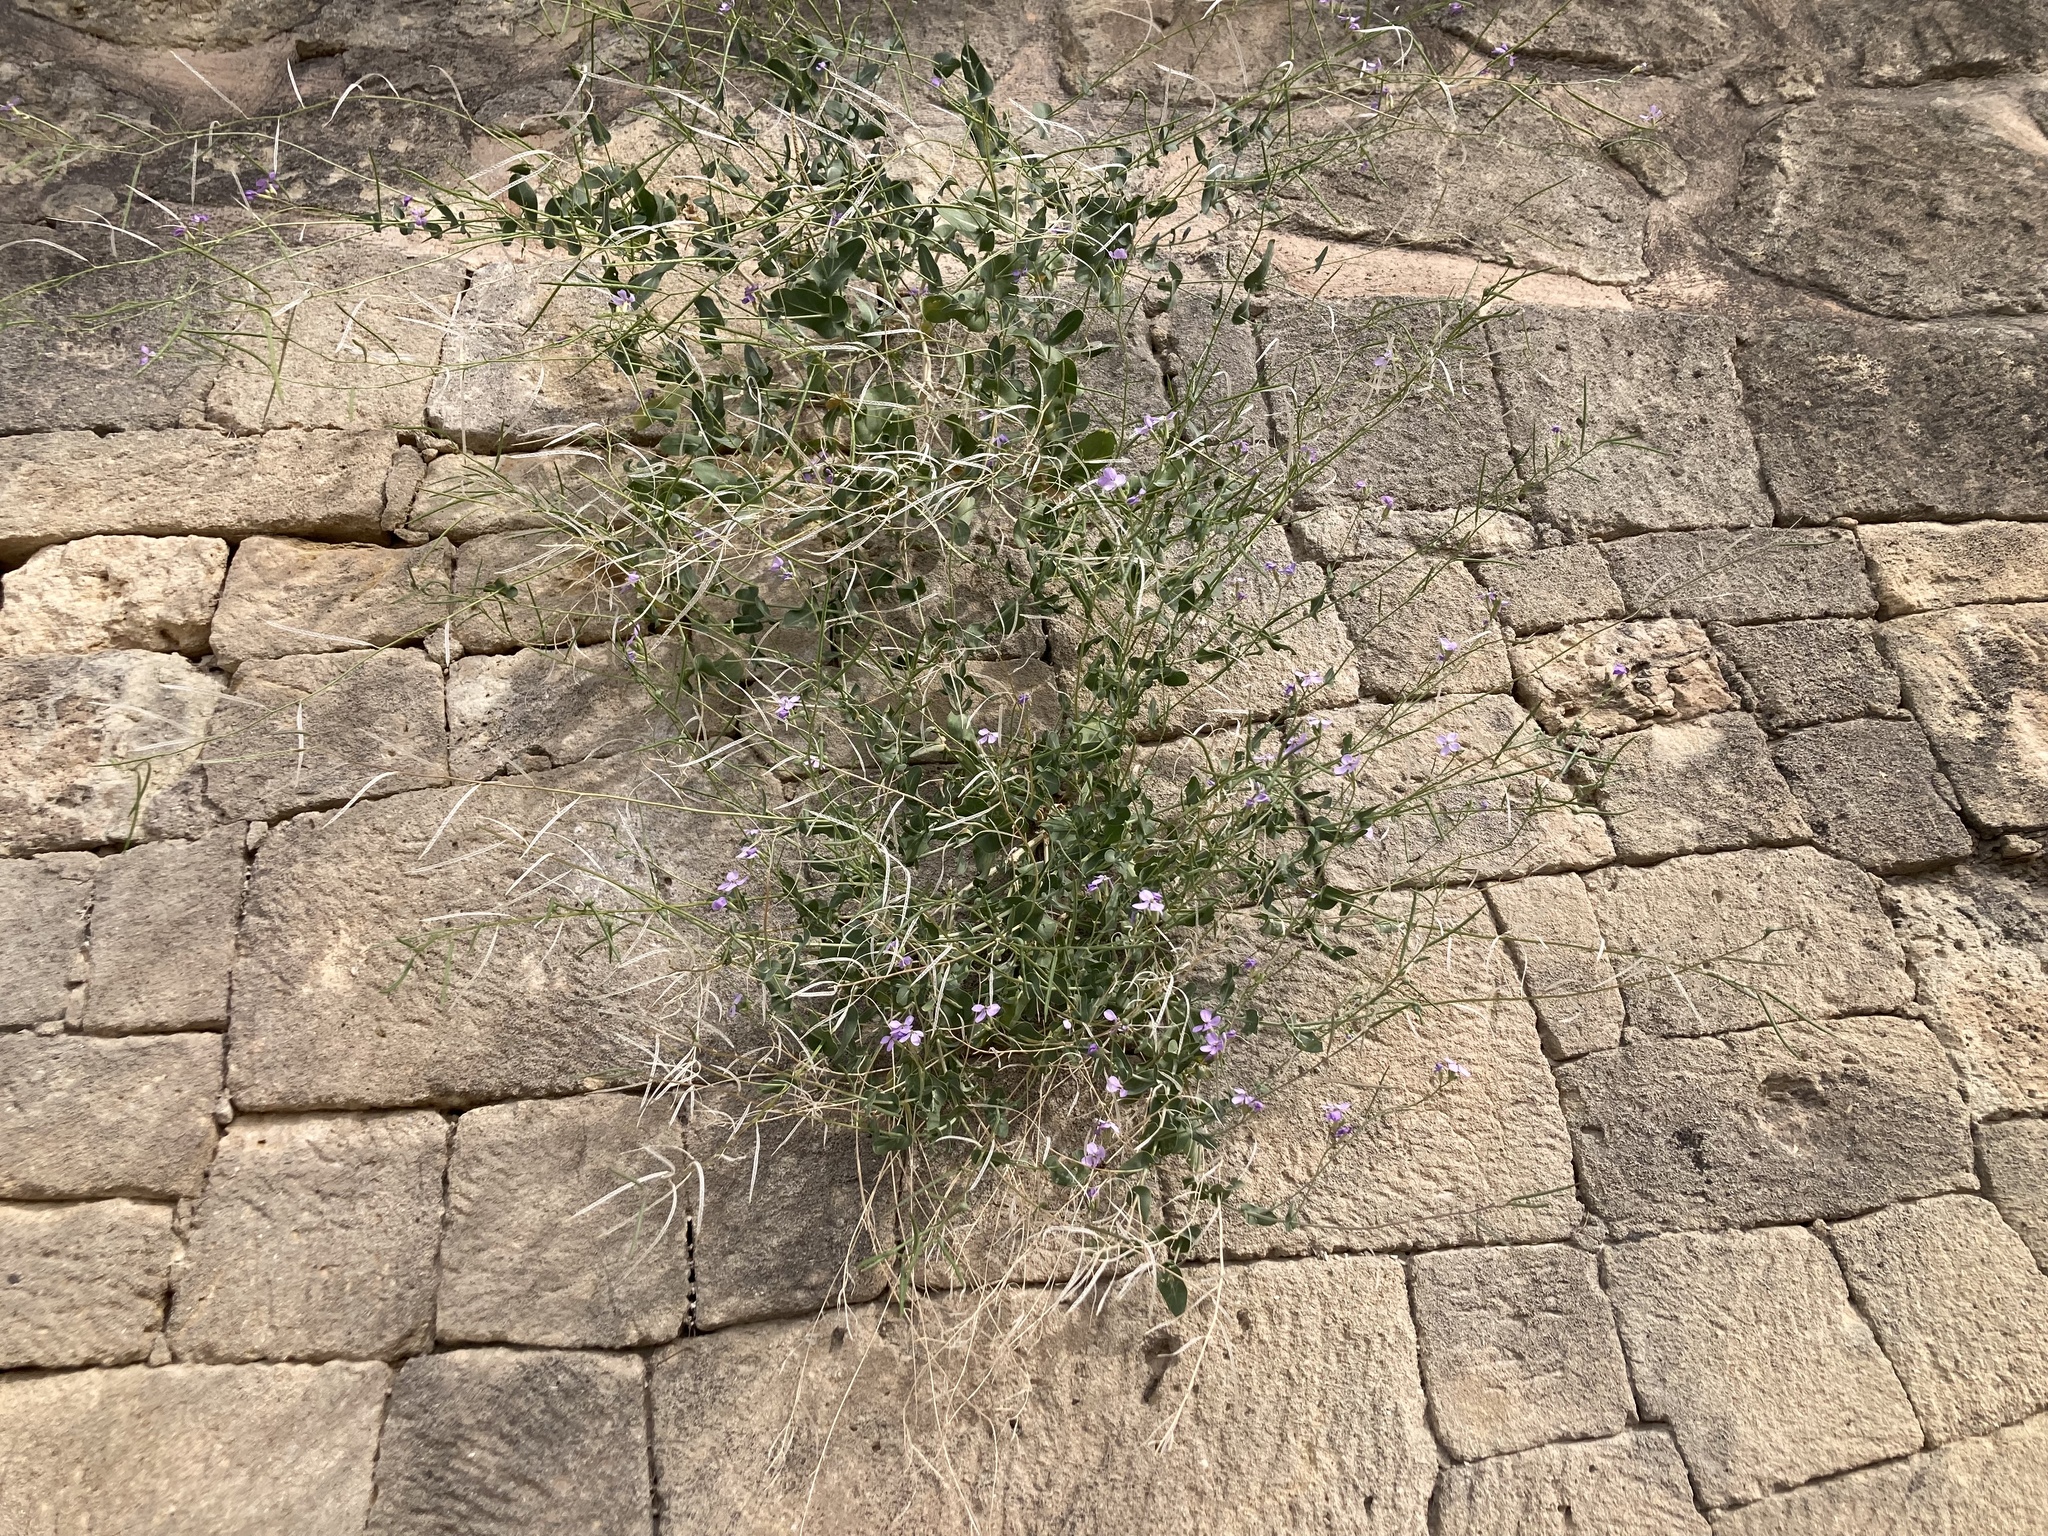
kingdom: Plantae
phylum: Tracheophyta
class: Magnoliopsida
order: Brassicales
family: Brassicaceae
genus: Moricandia
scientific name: Moricandia arvensis
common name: Purple mistress
